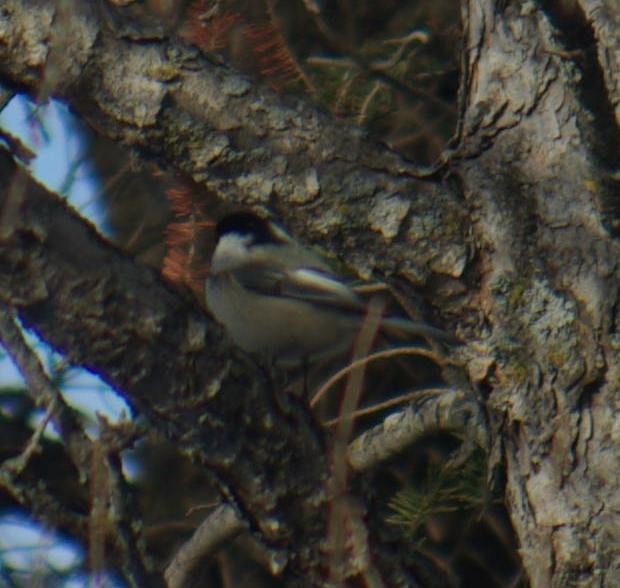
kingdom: Animalia
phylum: Chordata
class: Aves
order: Passeriformes
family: Paridae
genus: Poecile
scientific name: Poecile atricapillus
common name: Black-capped chickadee
